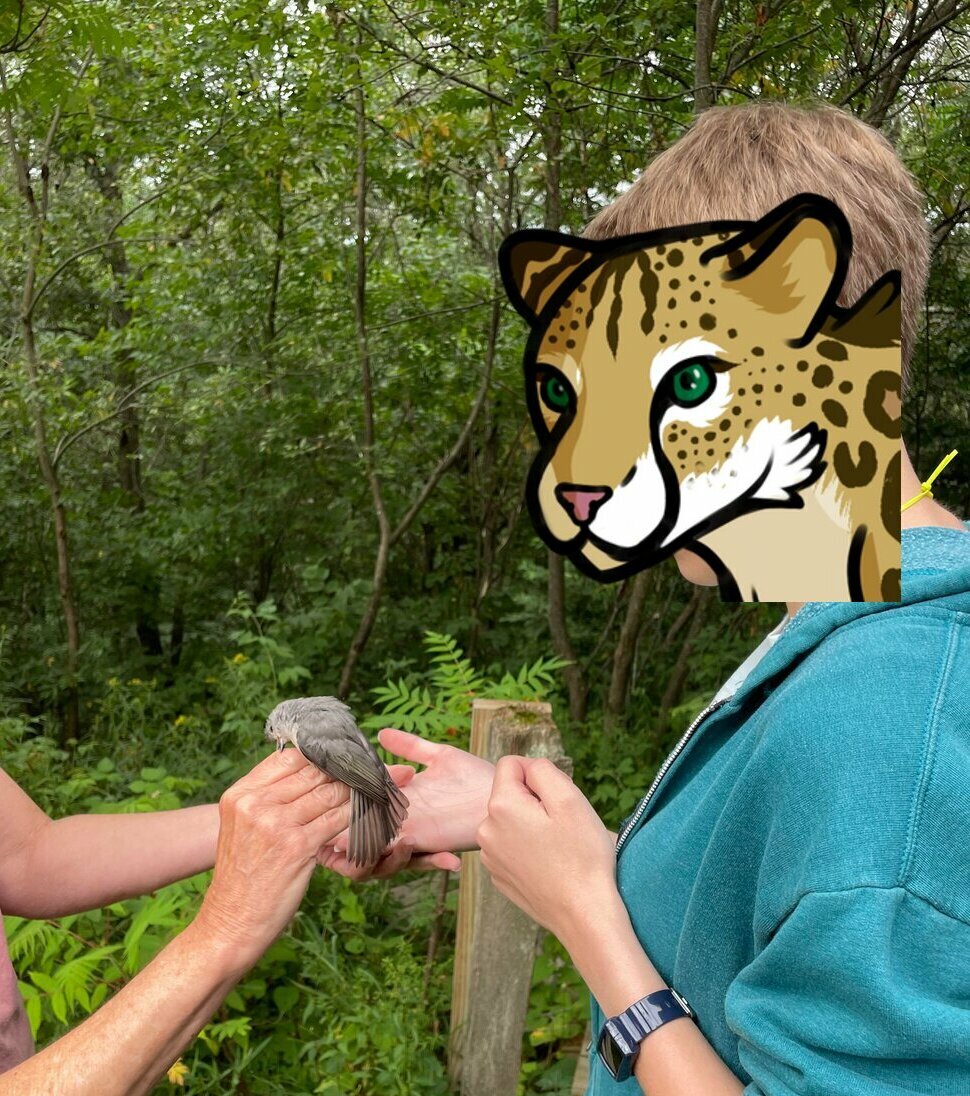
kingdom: Animalia
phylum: Chordata
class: Aves
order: Passeriformes
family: Paridae
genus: Baeolophus
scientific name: Baeolophus bicolor
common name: Tufted titmouse
